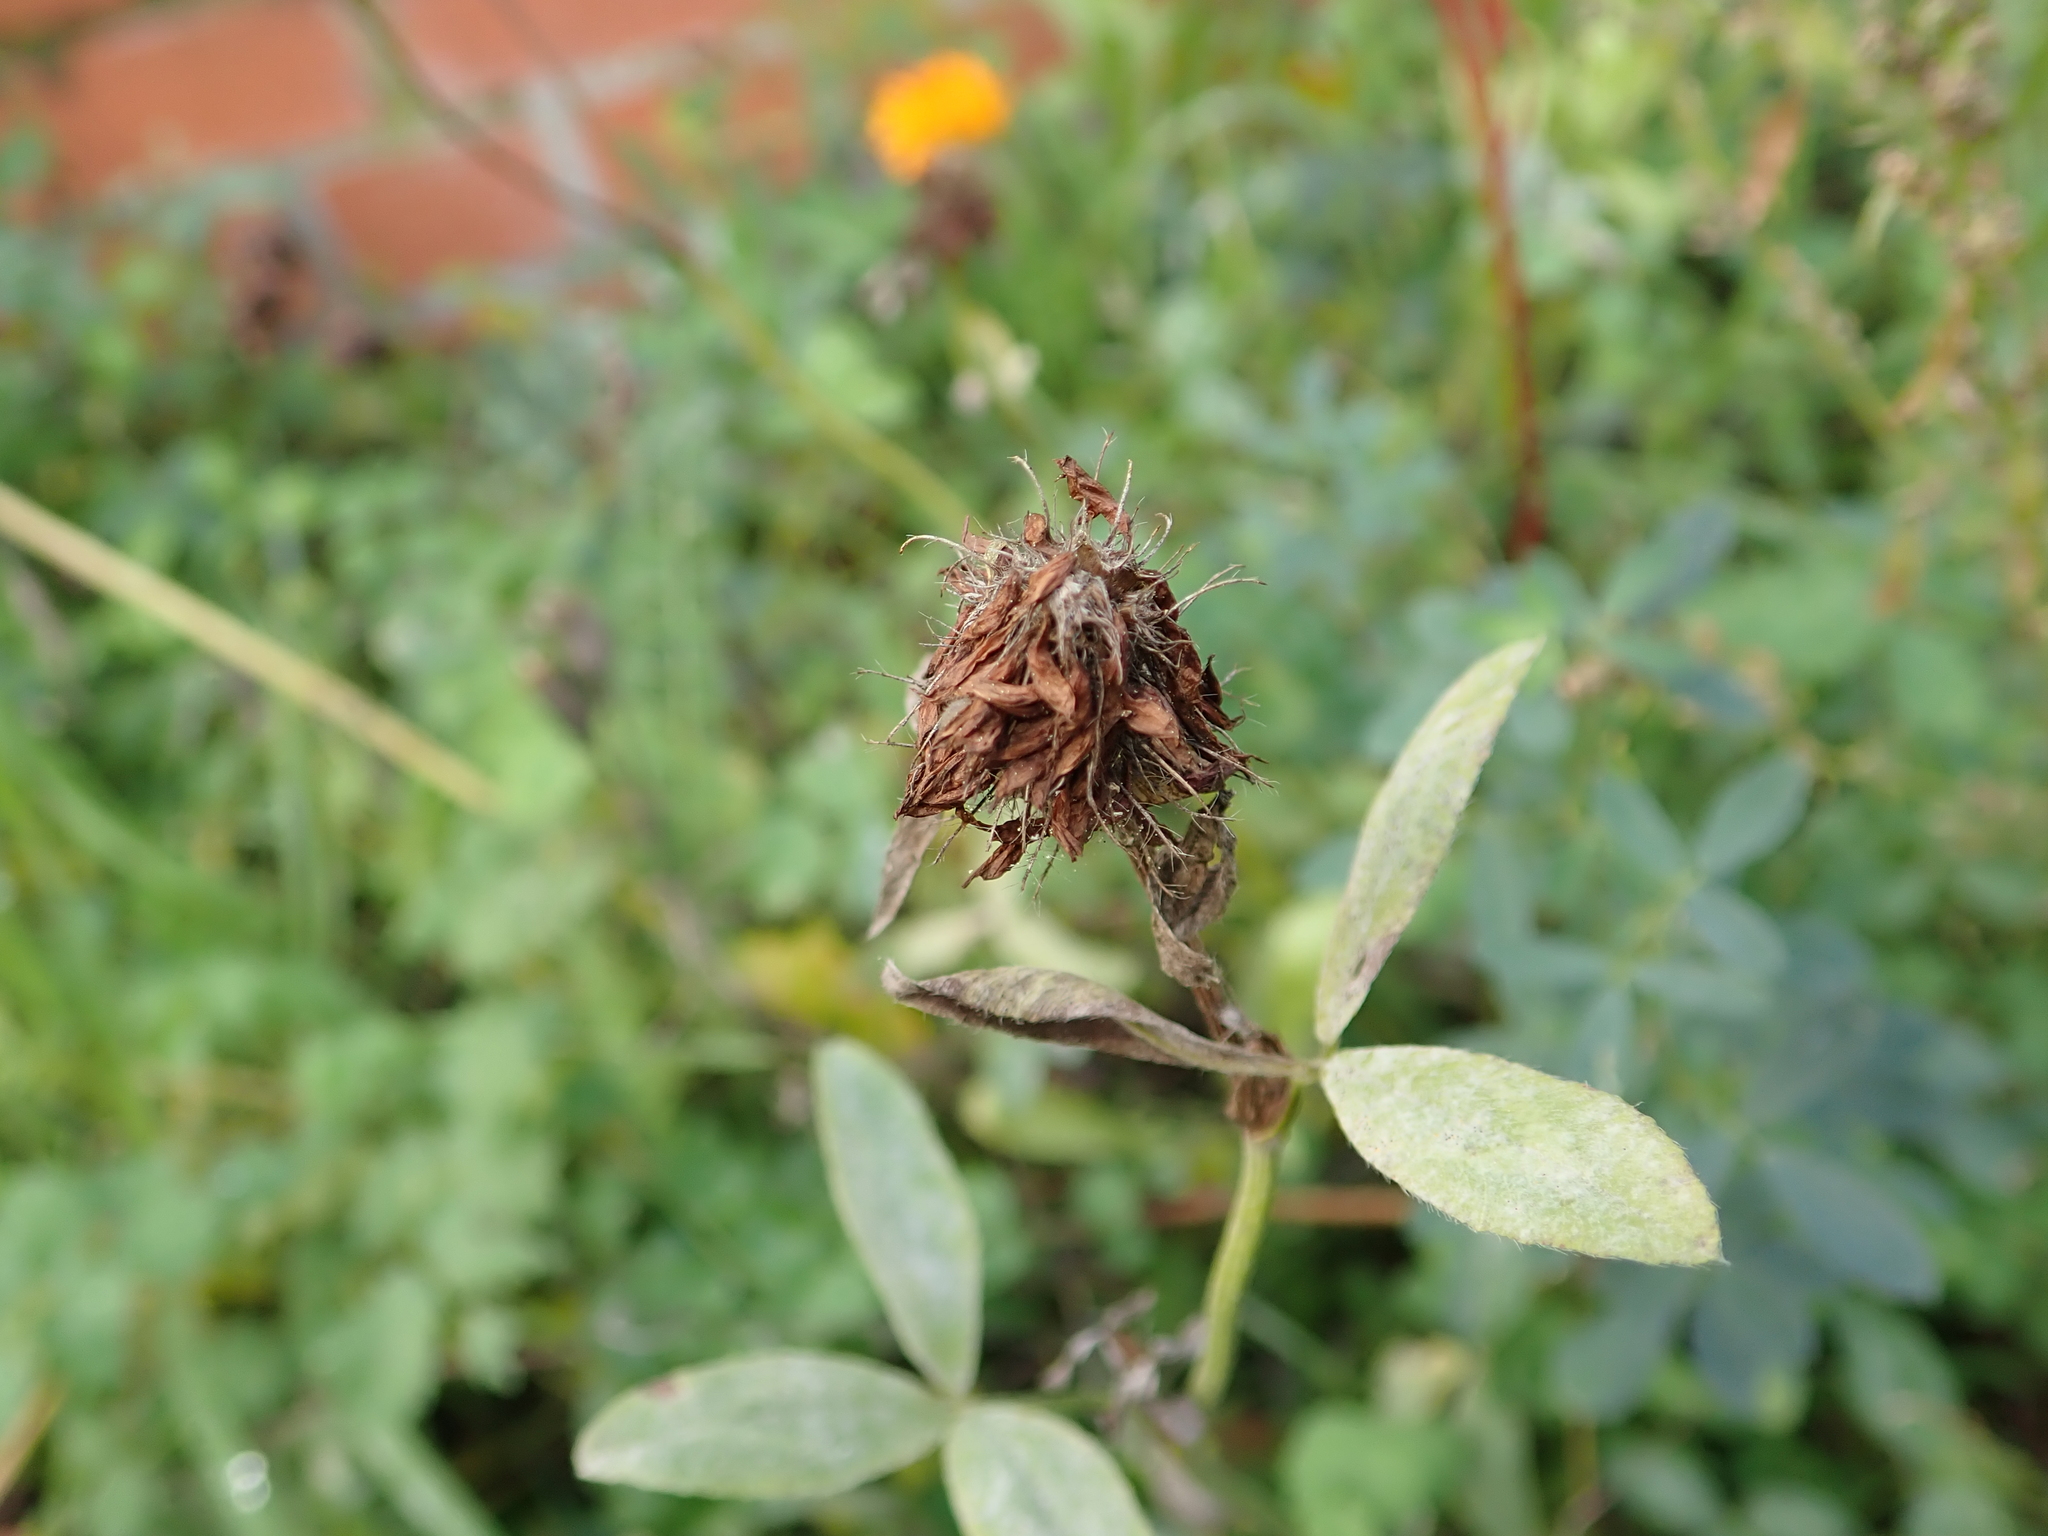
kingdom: Plantae
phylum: Tracheophyta
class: Magnoliopsida
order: Fabales
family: Fabaceae
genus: Trifolium
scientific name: Trifolium pratense
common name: Red clover
